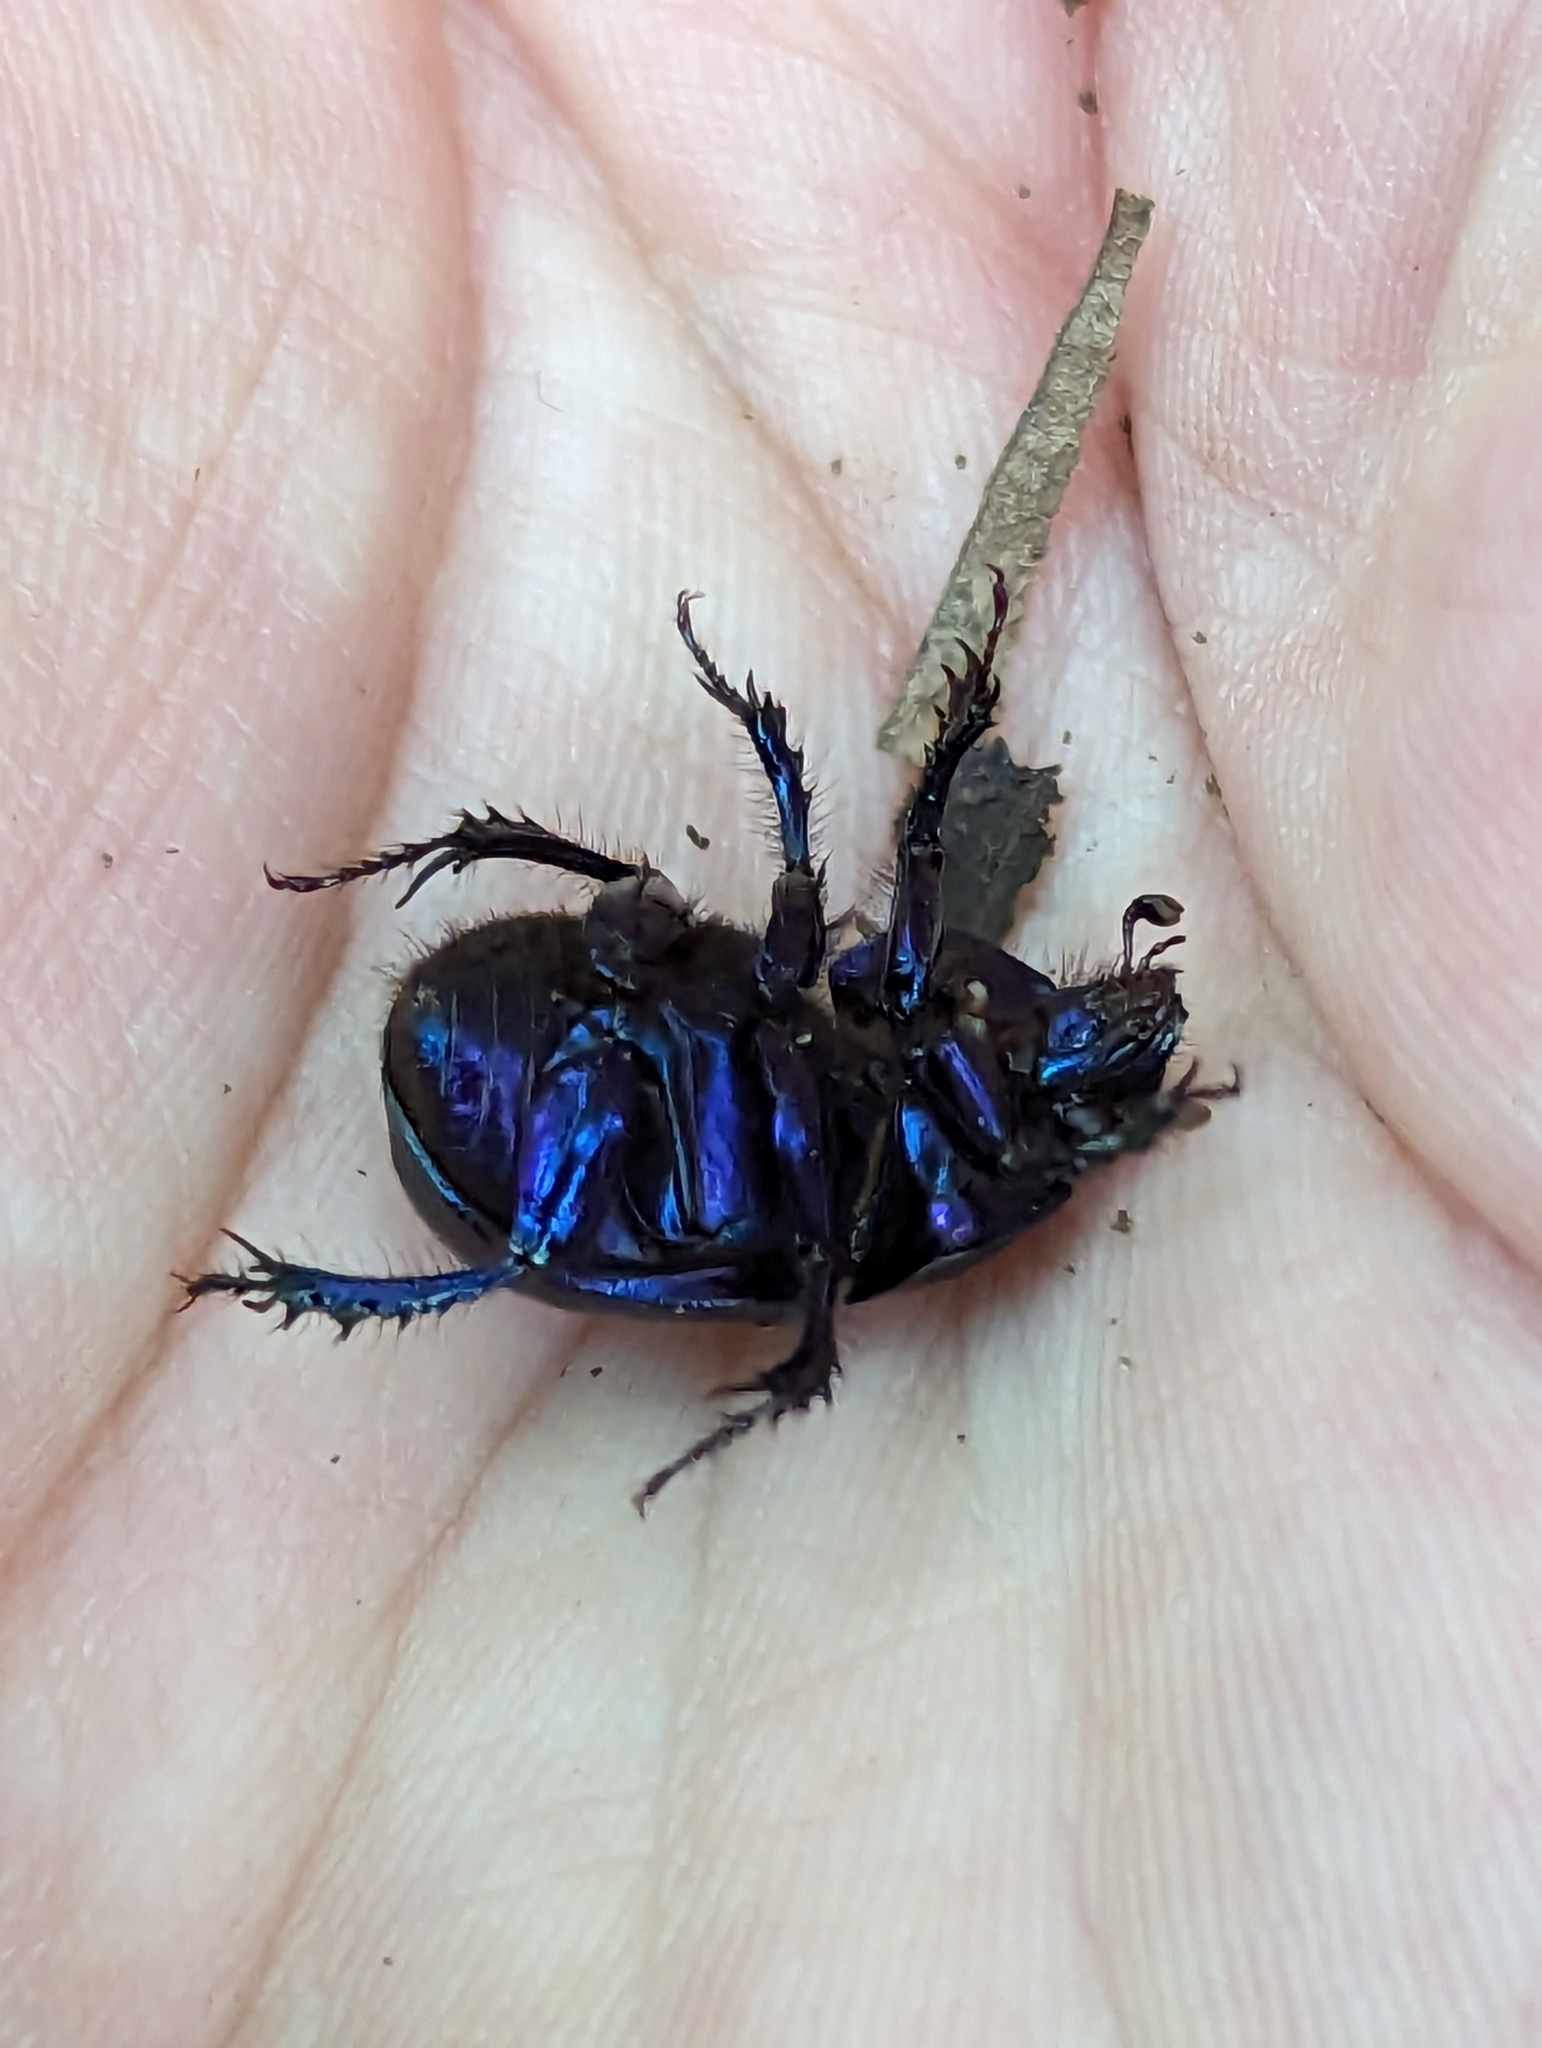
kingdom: Animalia
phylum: Arthropoda
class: Insecta
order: Coleoptera
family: Geotrupidae
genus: Anoplotrupes
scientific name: Anoplotrupes stercorosus
